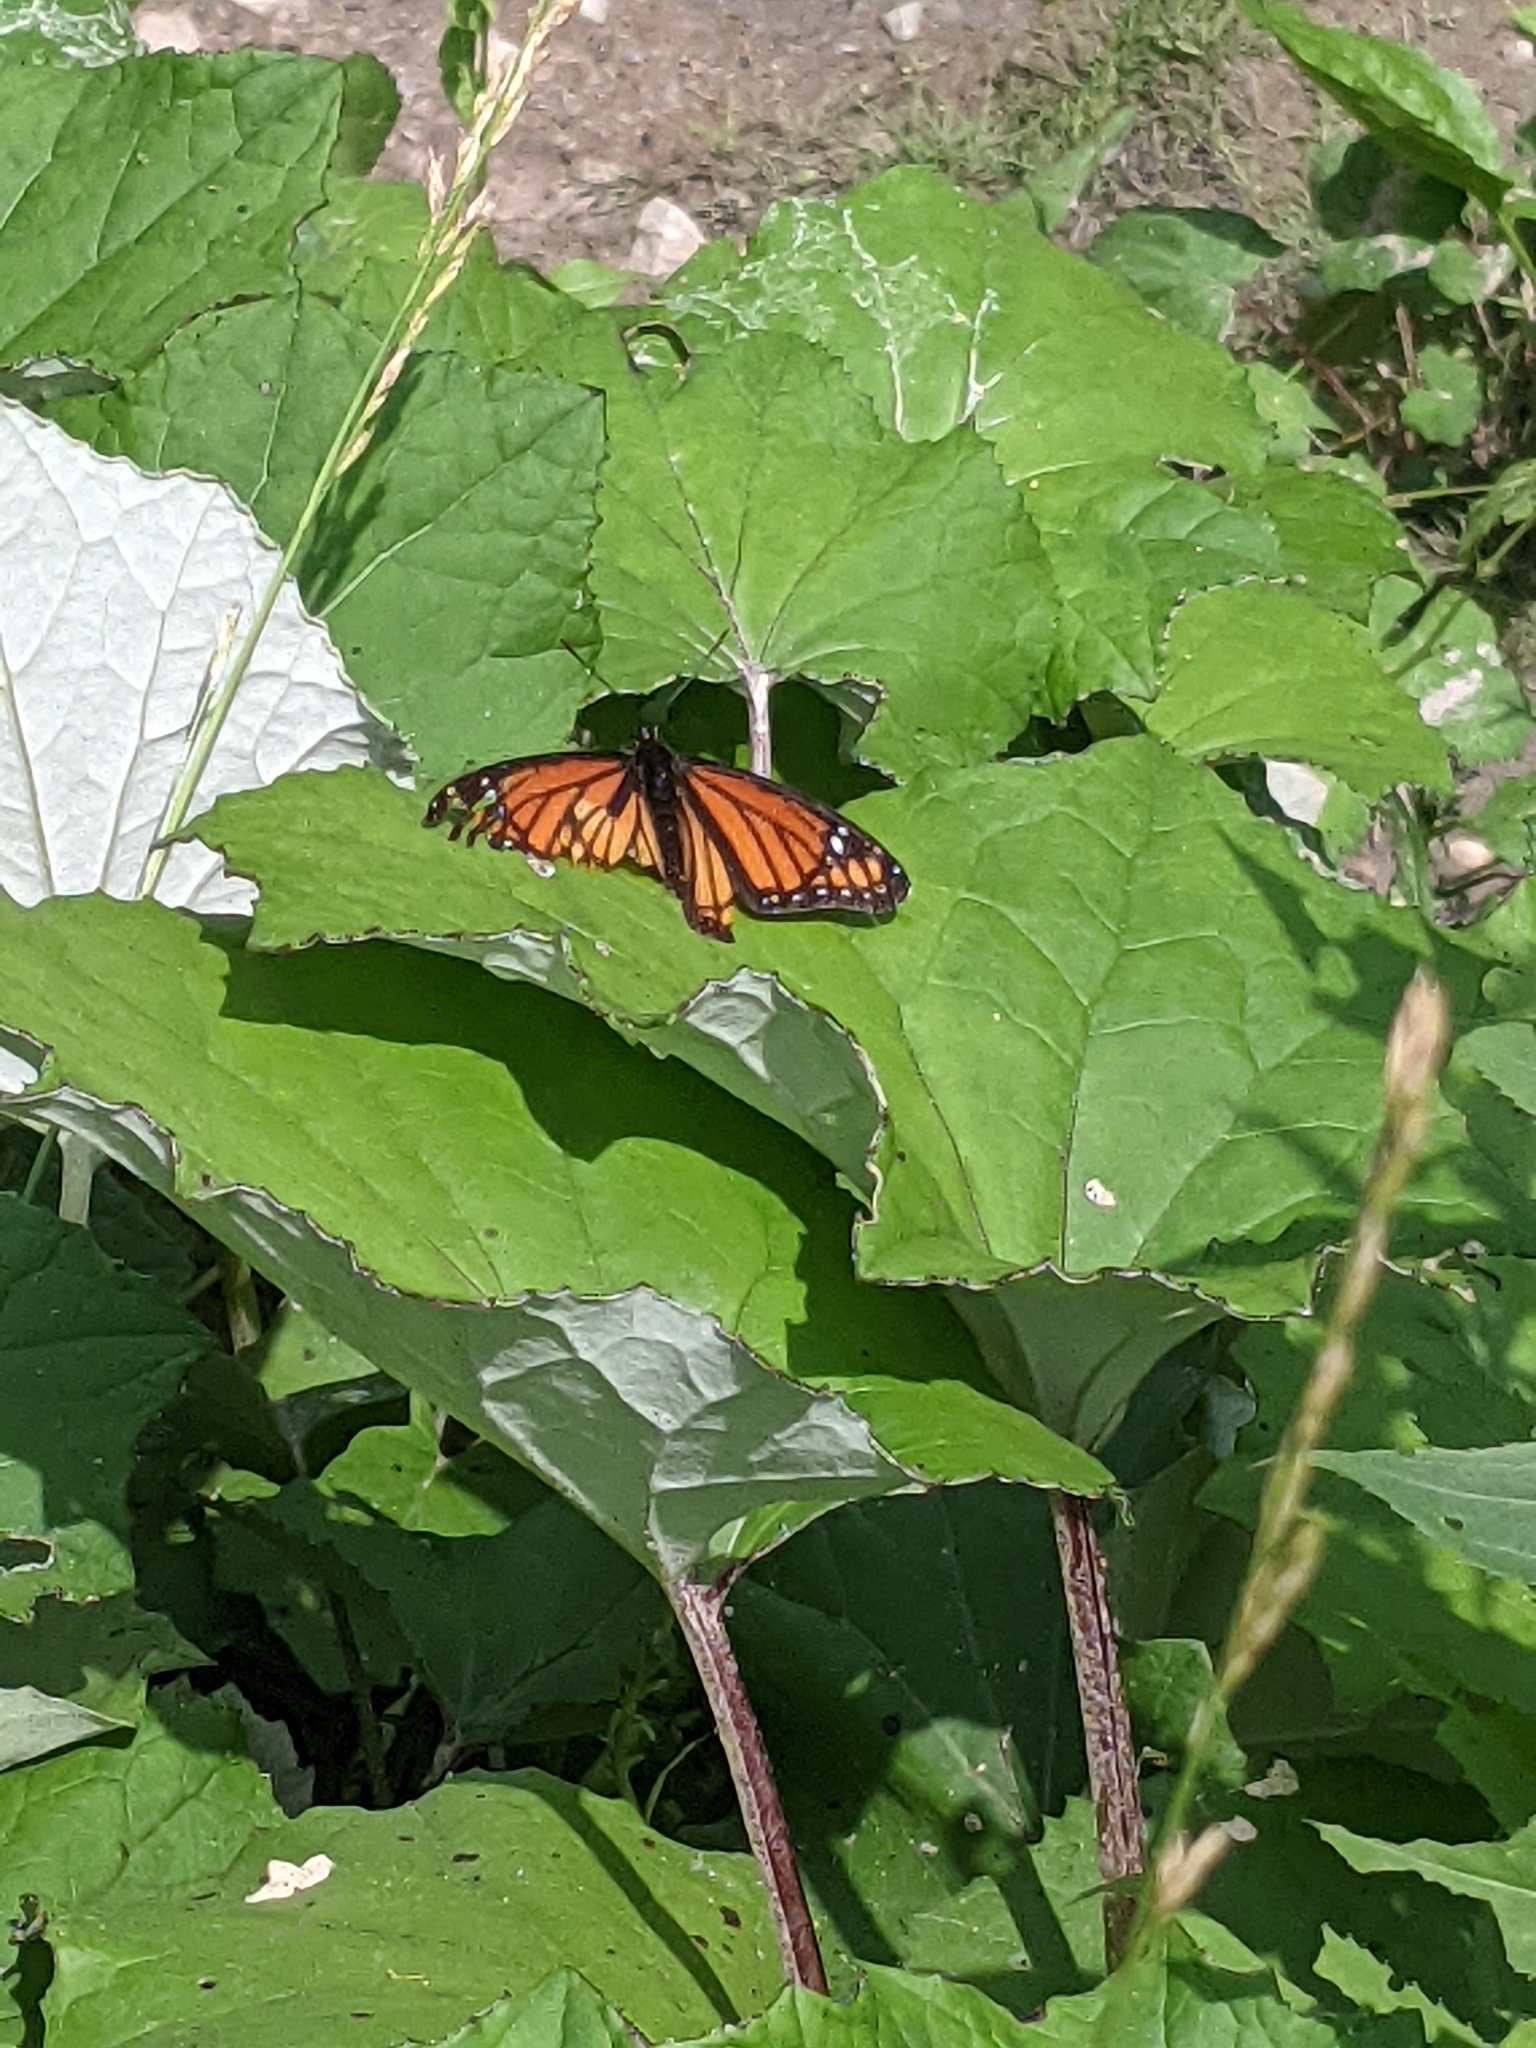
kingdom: Animalia
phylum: Arthropoda
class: Insecta
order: Lepidoptera
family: Nymphalidae
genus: Limenitis
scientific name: Limenitis archippus
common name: Viceroy
